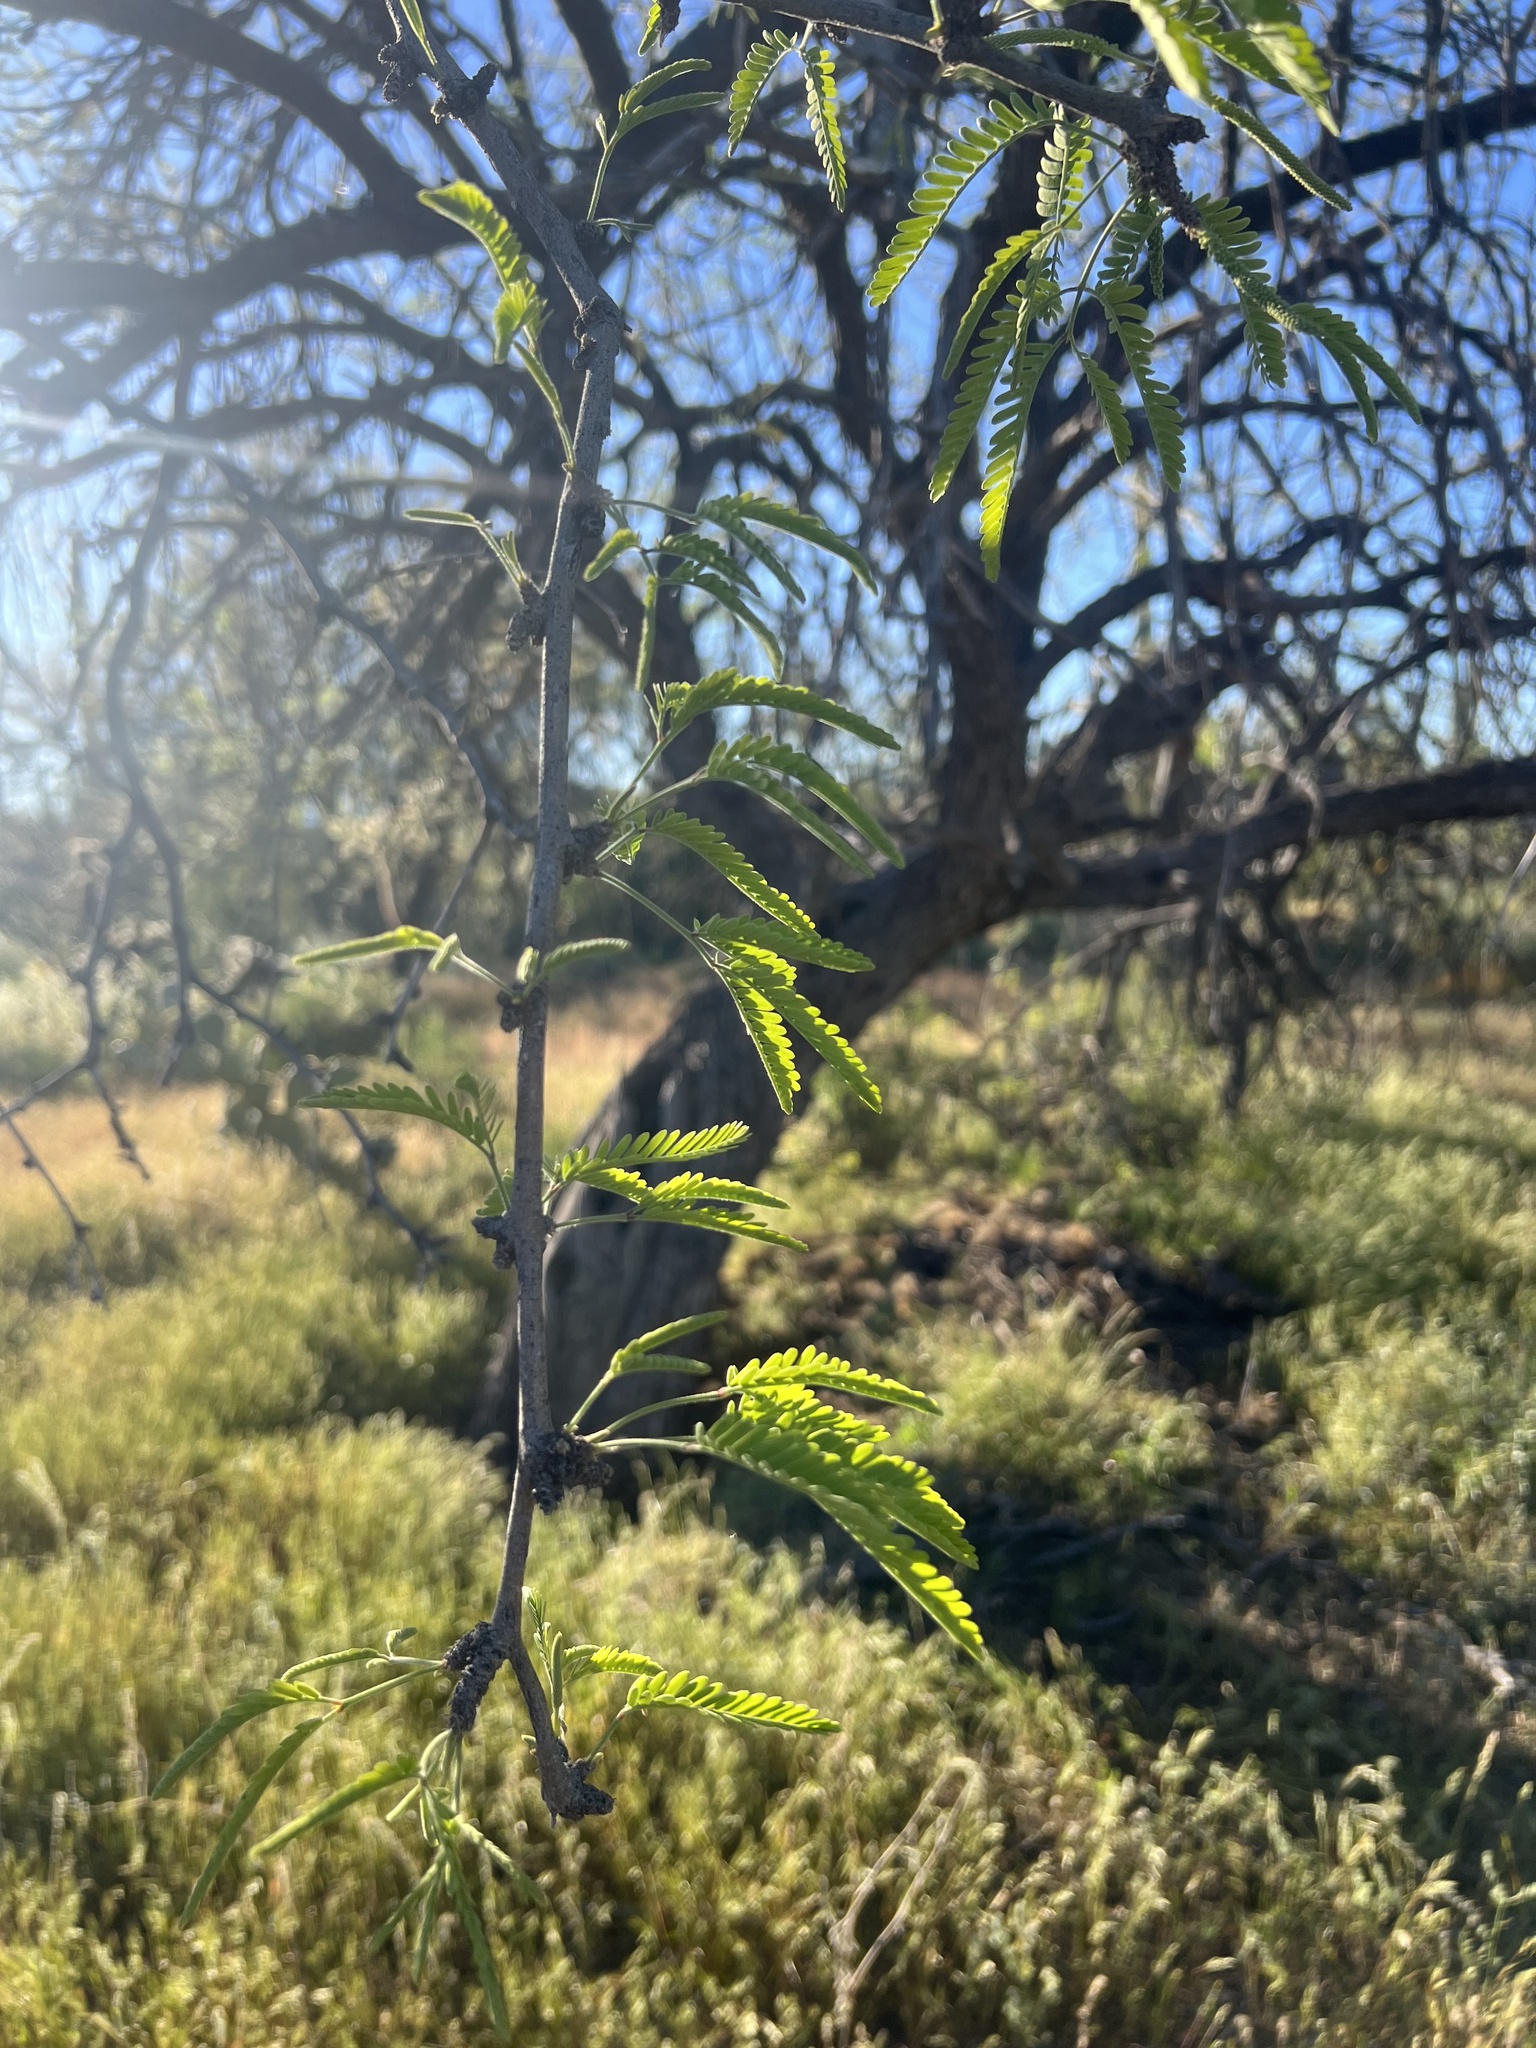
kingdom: Plantae
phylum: Tracheophyta
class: Magnoliopsida
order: Fabales
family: Fabaceae
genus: Prosopis
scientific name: Prosopis velutina
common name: Velvet mesquite
